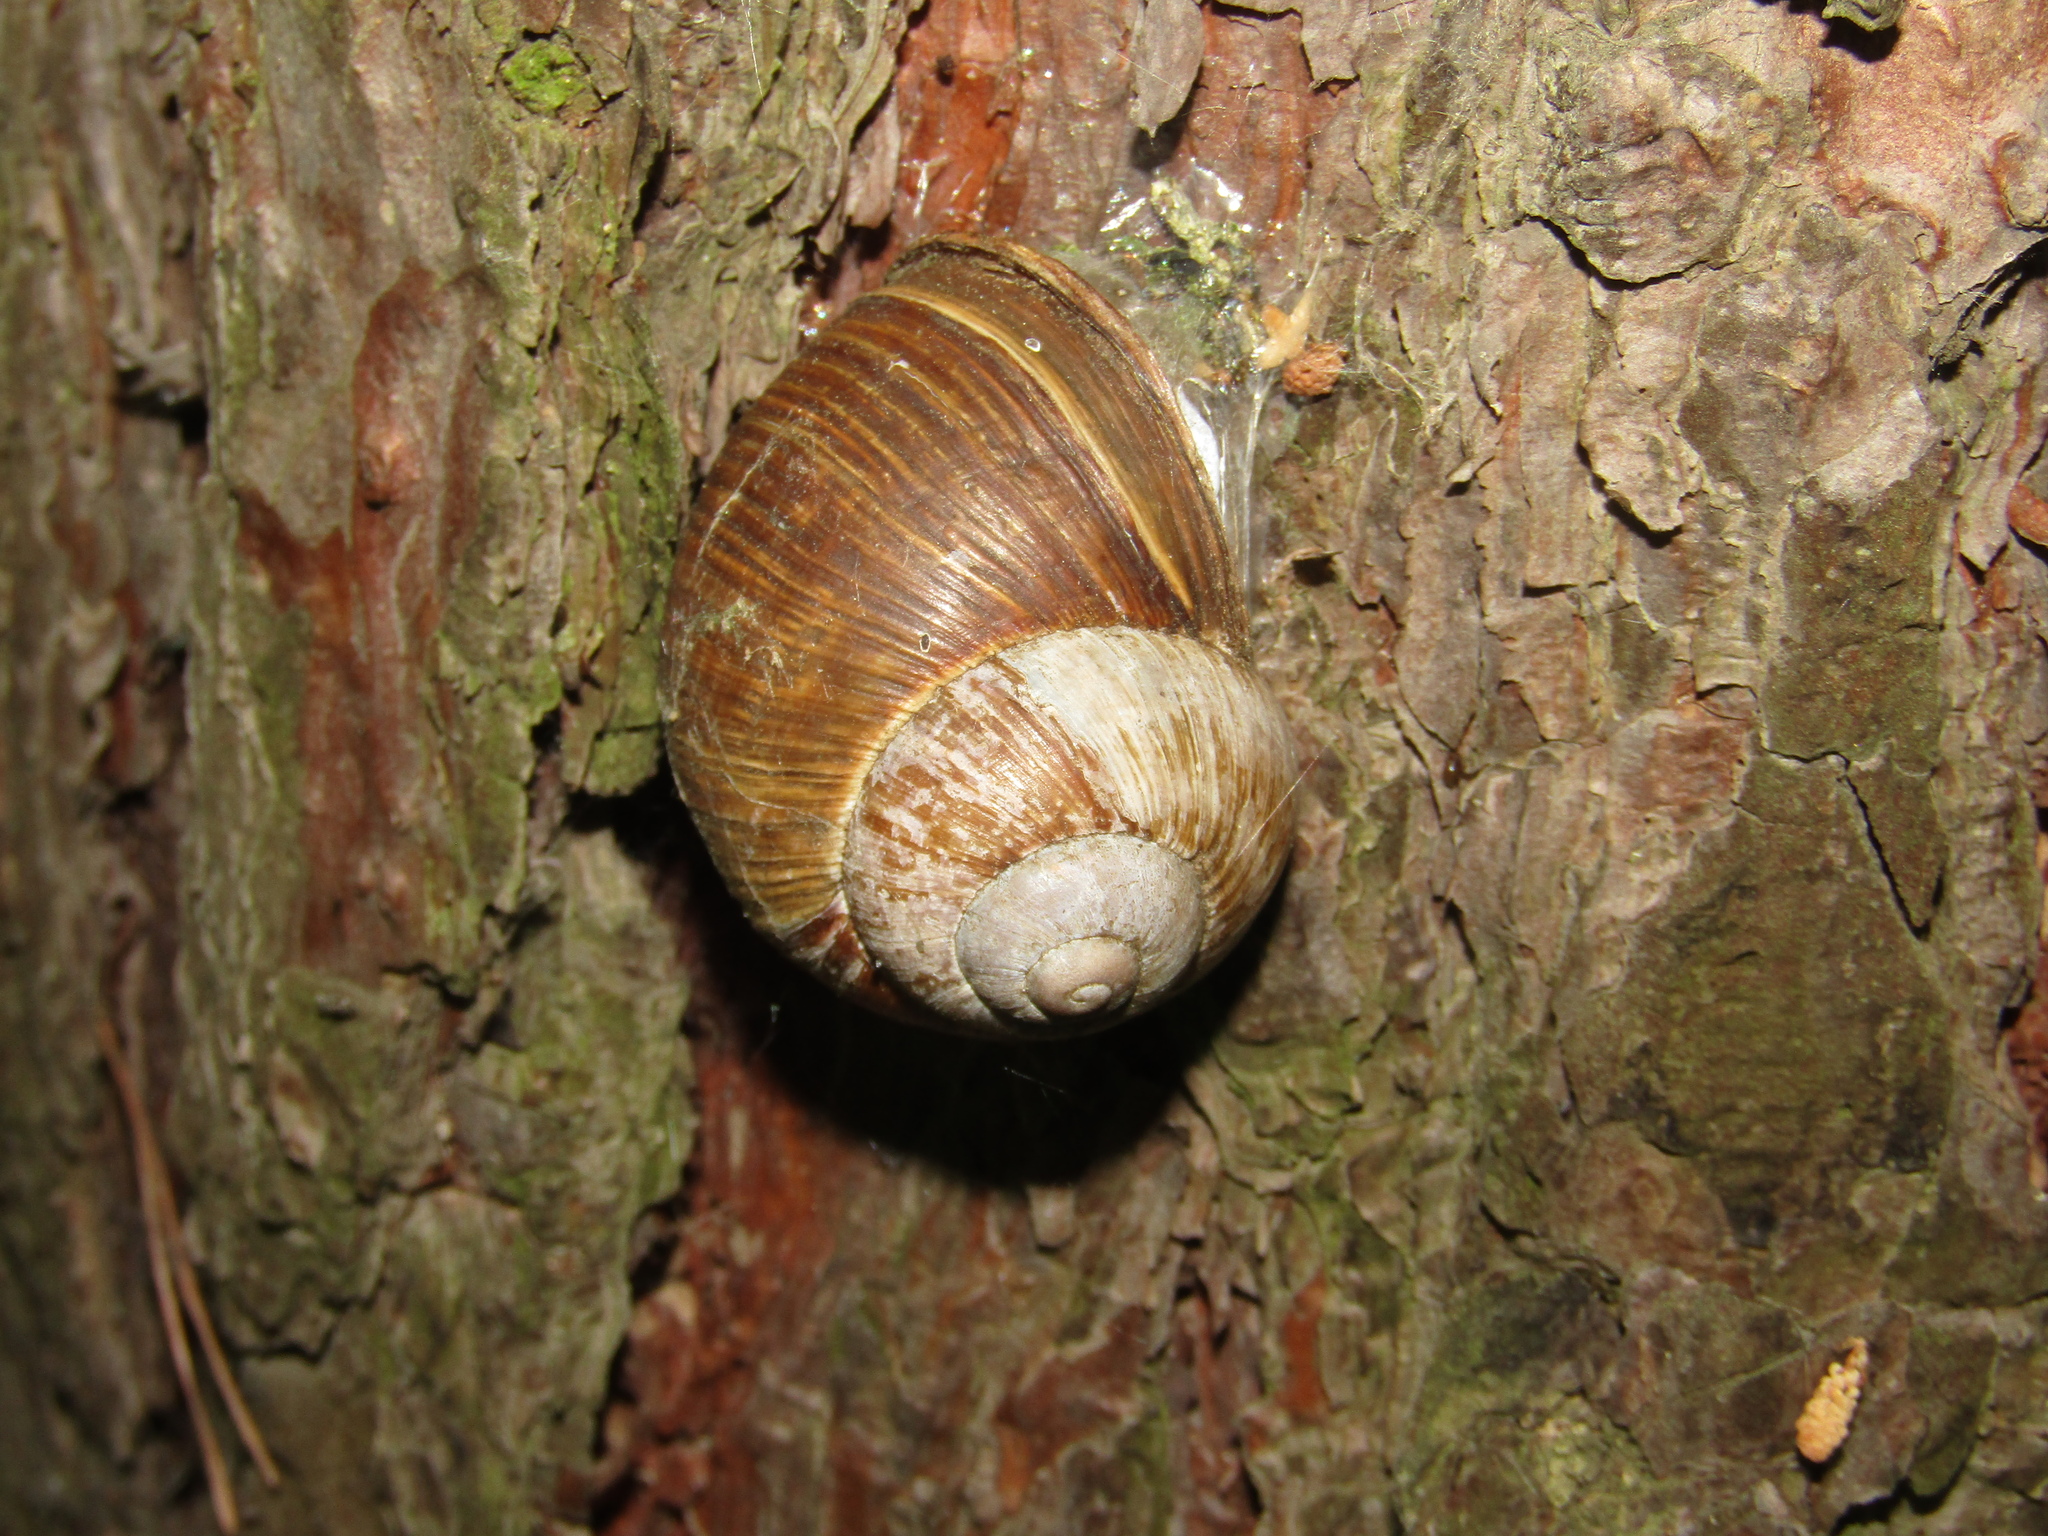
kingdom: Animalia
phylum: Mollusca
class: Gastropoda
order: Stylommatophora
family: Helicidae
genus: Helix
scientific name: Helix pomatia
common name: Roman snail
